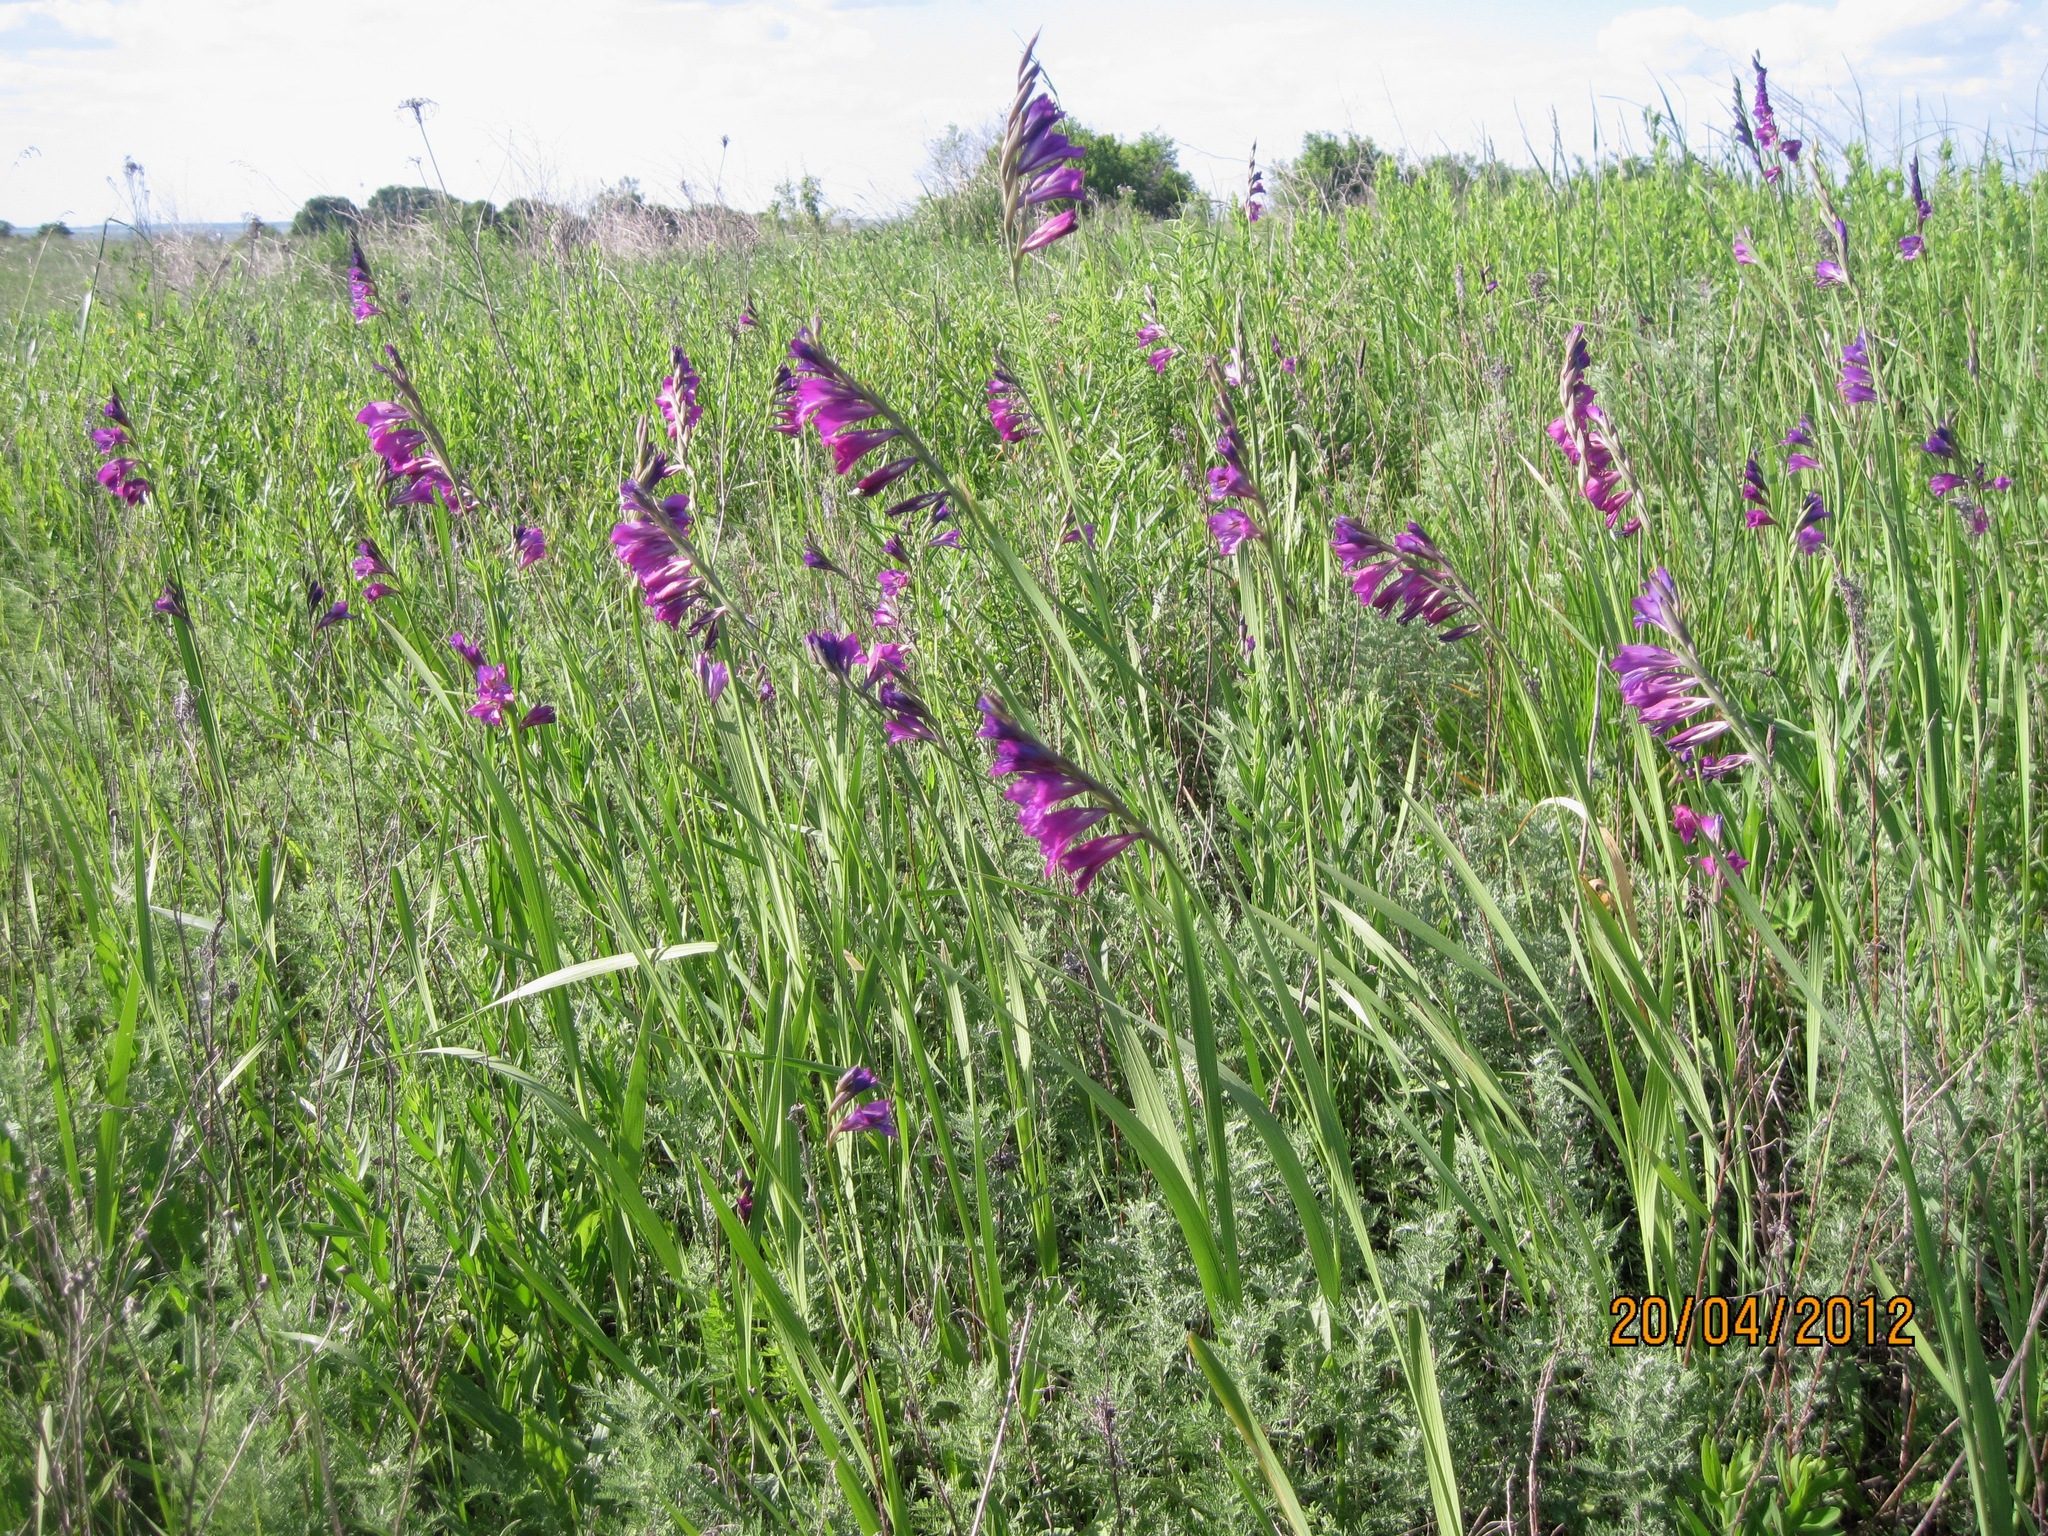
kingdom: Plantae
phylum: Tracheophyta
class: Liliopsida
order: Asparagales
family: Iridaceae
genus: Gladiolus
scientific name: Gladiolus tenuis
